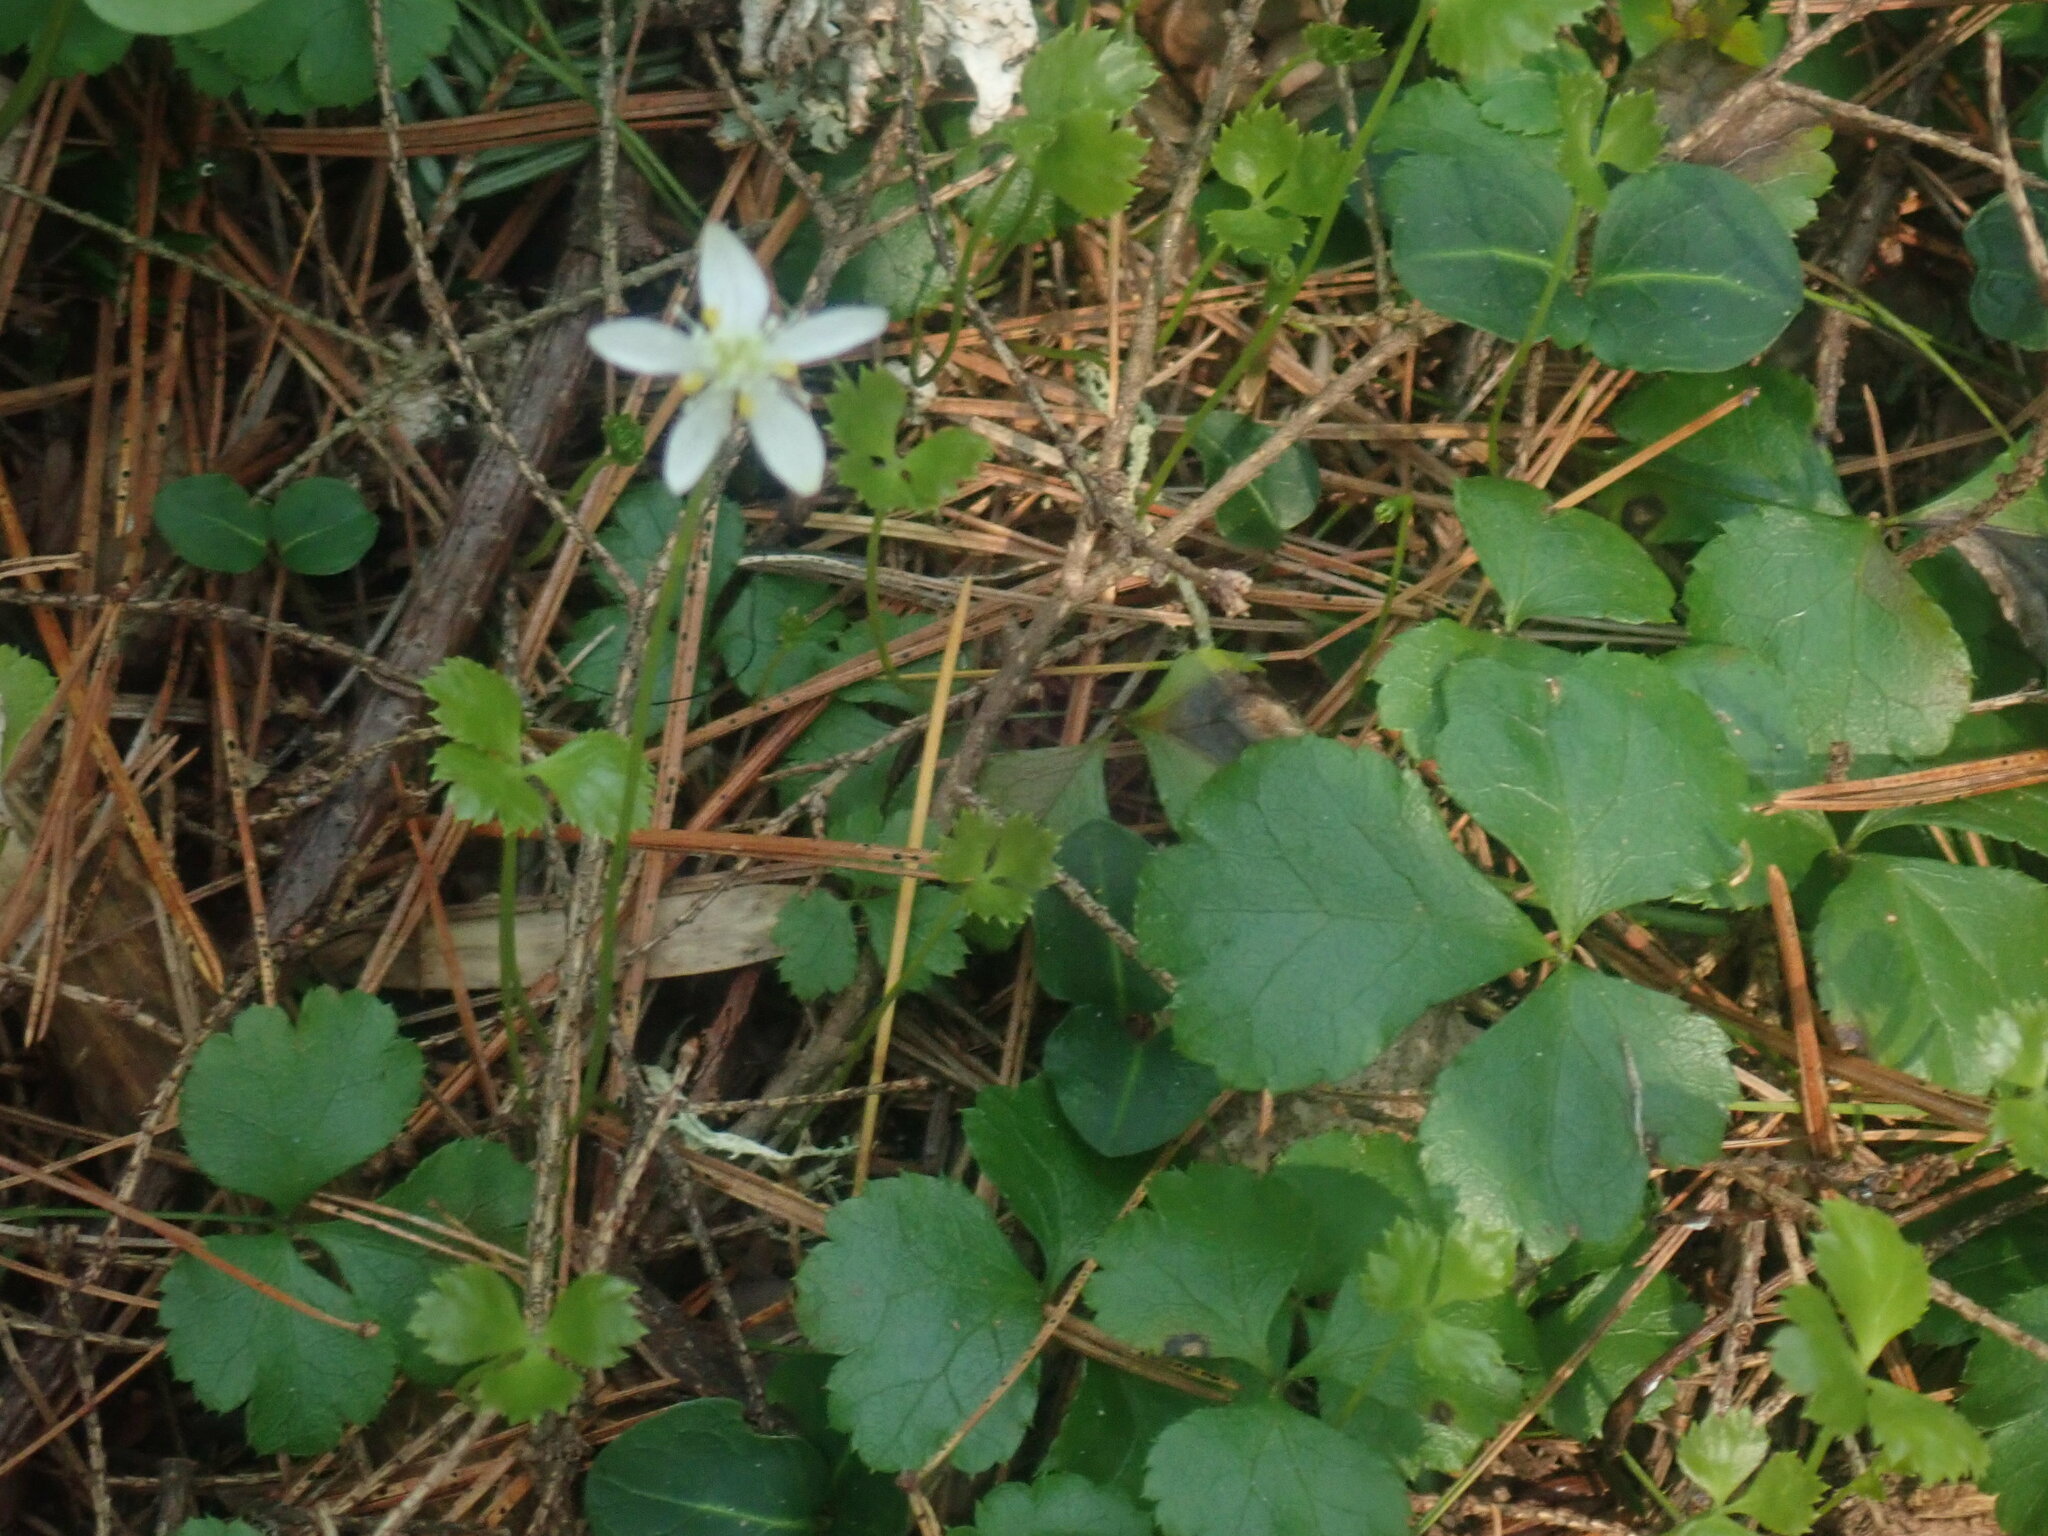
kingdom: Plantae
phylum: Tracheophyta
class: Magnoliopsida
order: Ranunculales
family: Ranunculaceae
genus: Coptis
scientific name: Coptis trifolia
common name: Canker-root
